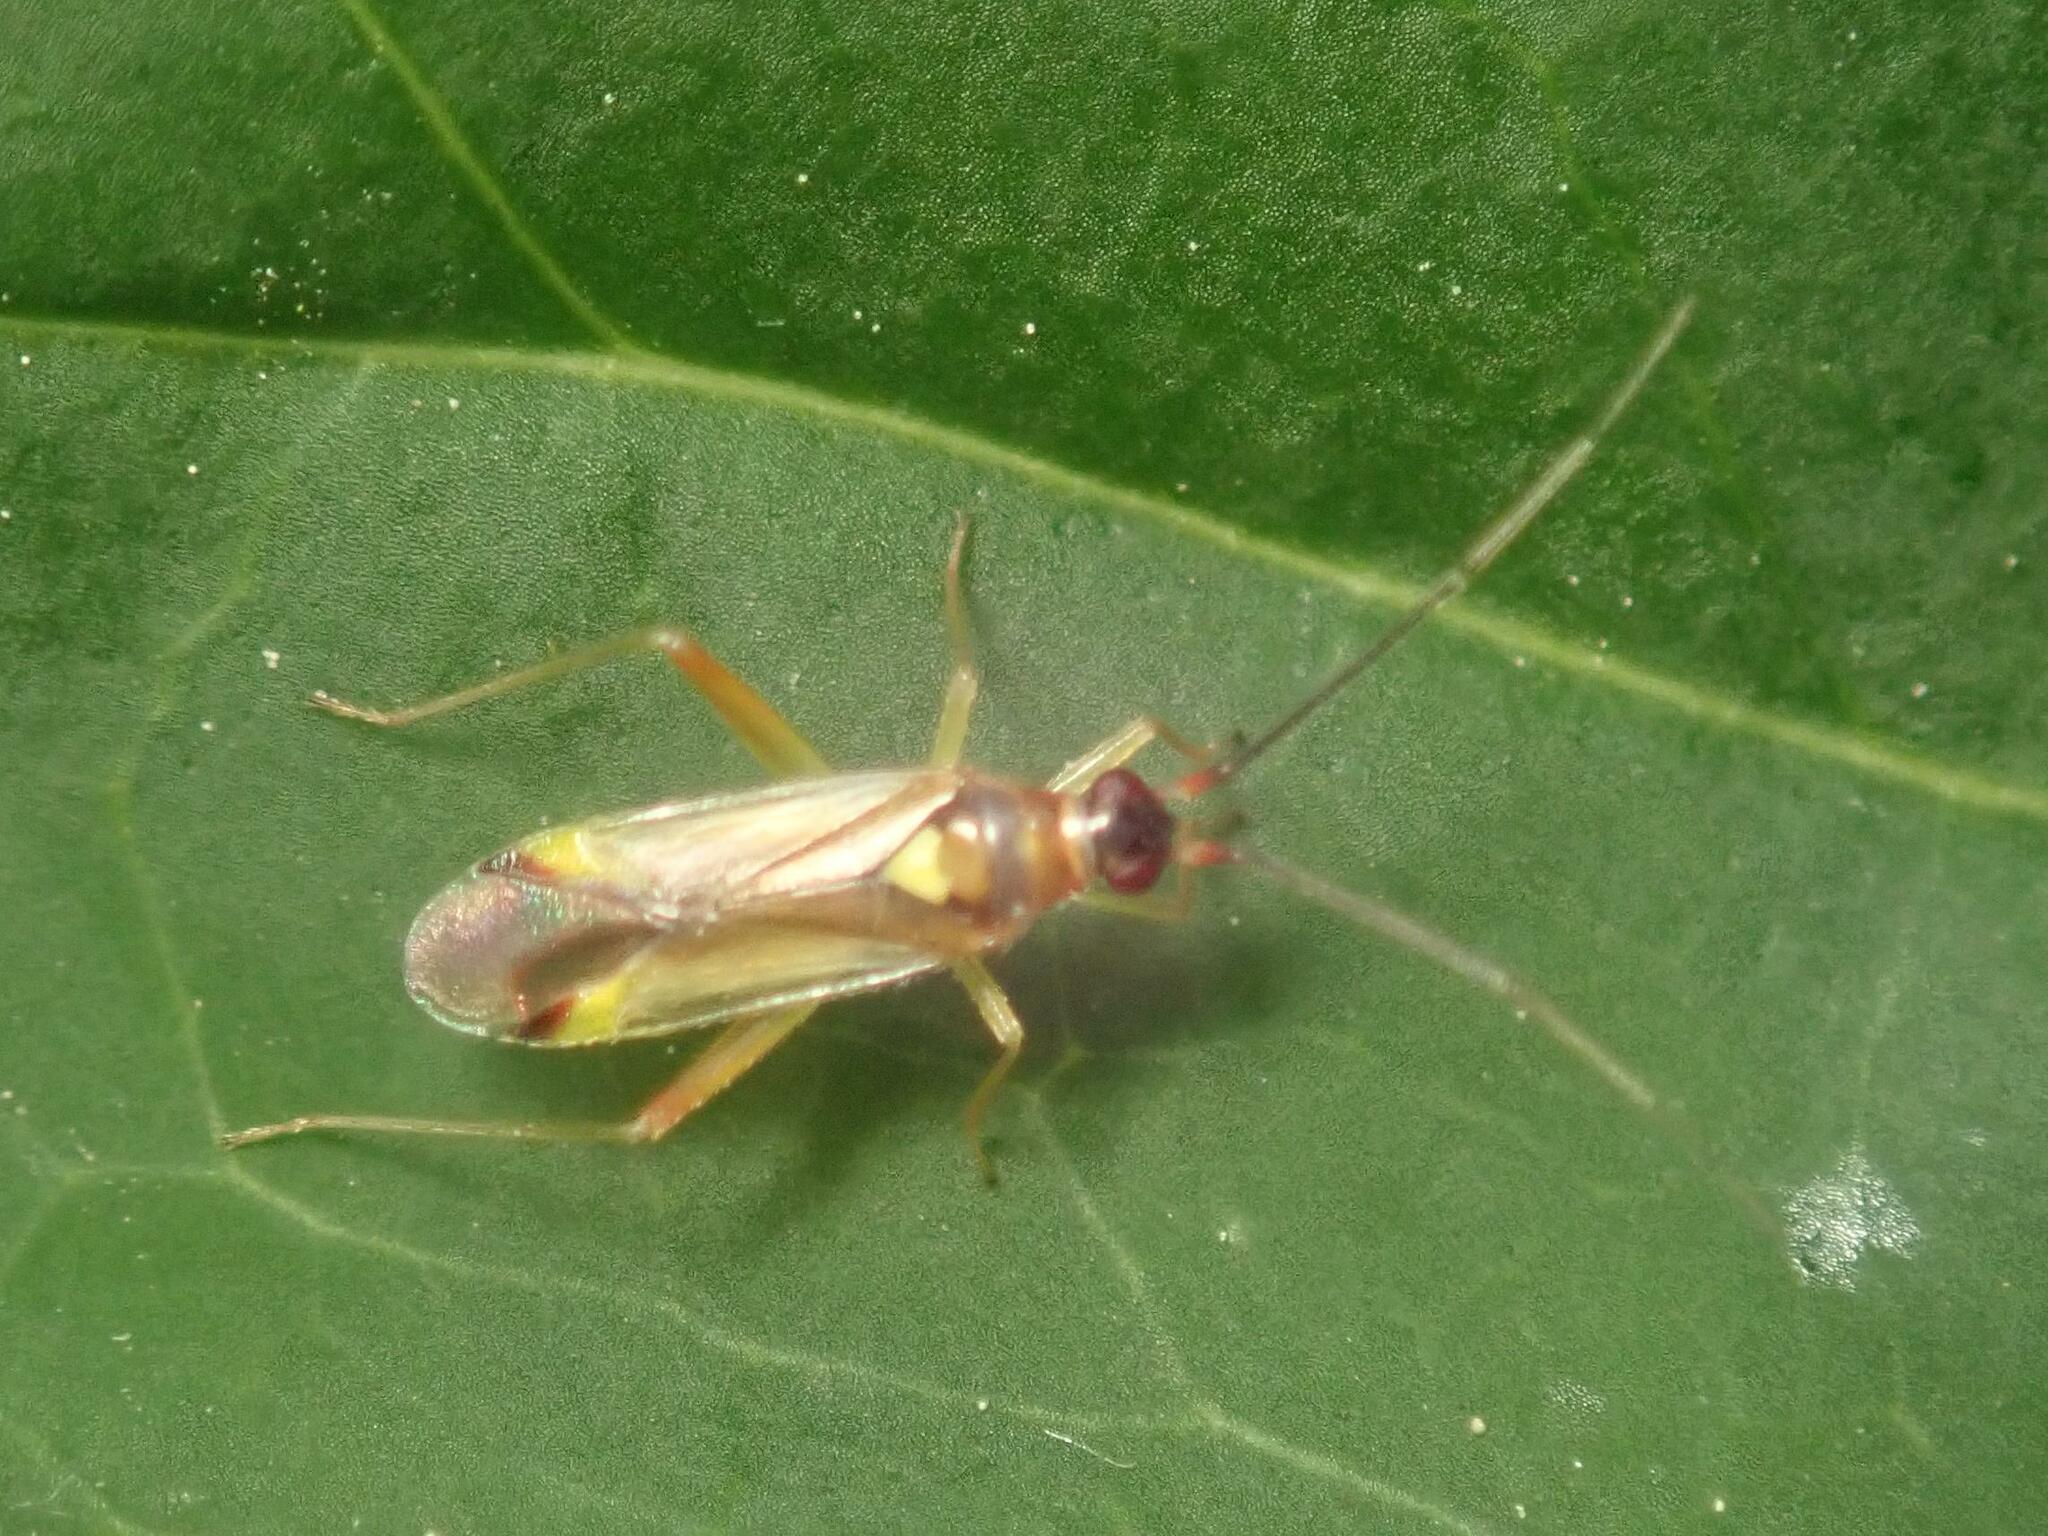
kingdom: Animalia
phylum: Arthropoda
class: Insecta
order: Hemiptera
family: Miridae
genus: Campyloneura
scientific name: Campyloneura virgula
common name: Predatory bug
